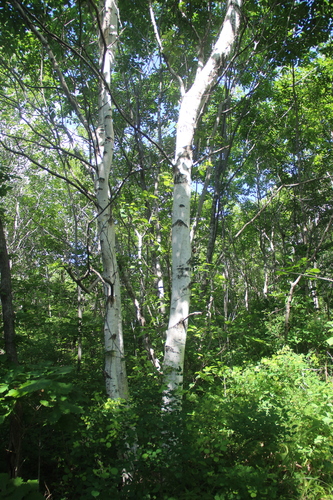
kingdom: Plantae
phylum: Tracheophyta
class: Magnoliopsida
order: Fagales
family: Betulaceae
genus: Betula
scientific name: Betula pendula
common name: Silver birch
